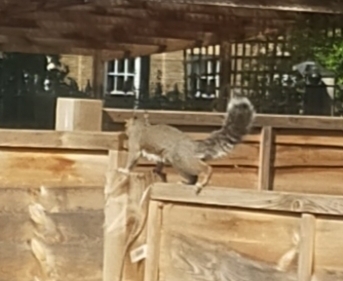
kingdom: Animalia
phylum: Chordata
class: Mammalia
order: Rodentia
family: Sciuridae
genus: Sciurus
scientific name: Sciurus carolinensis
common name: Eastern gray squirrel
